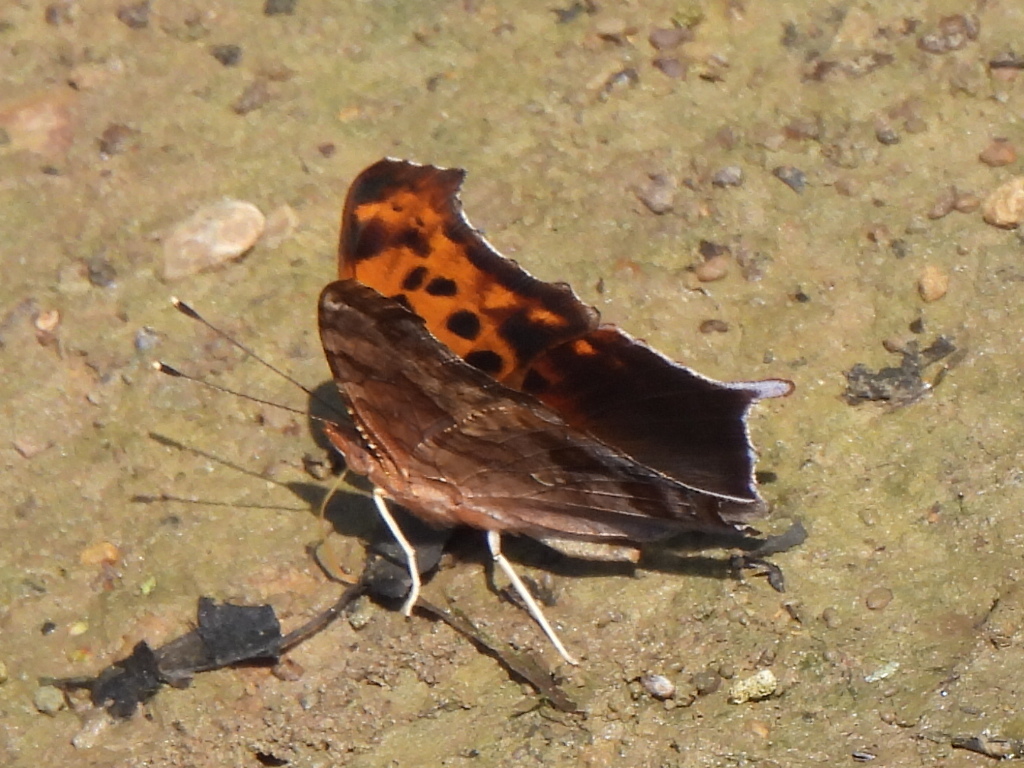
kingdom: Animalia
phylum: Arthropoda
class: Insecta
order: Lepidoptera
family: Nymphalidae
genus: Polygonia
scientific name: Polygonia interrogationis
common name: Question mark
